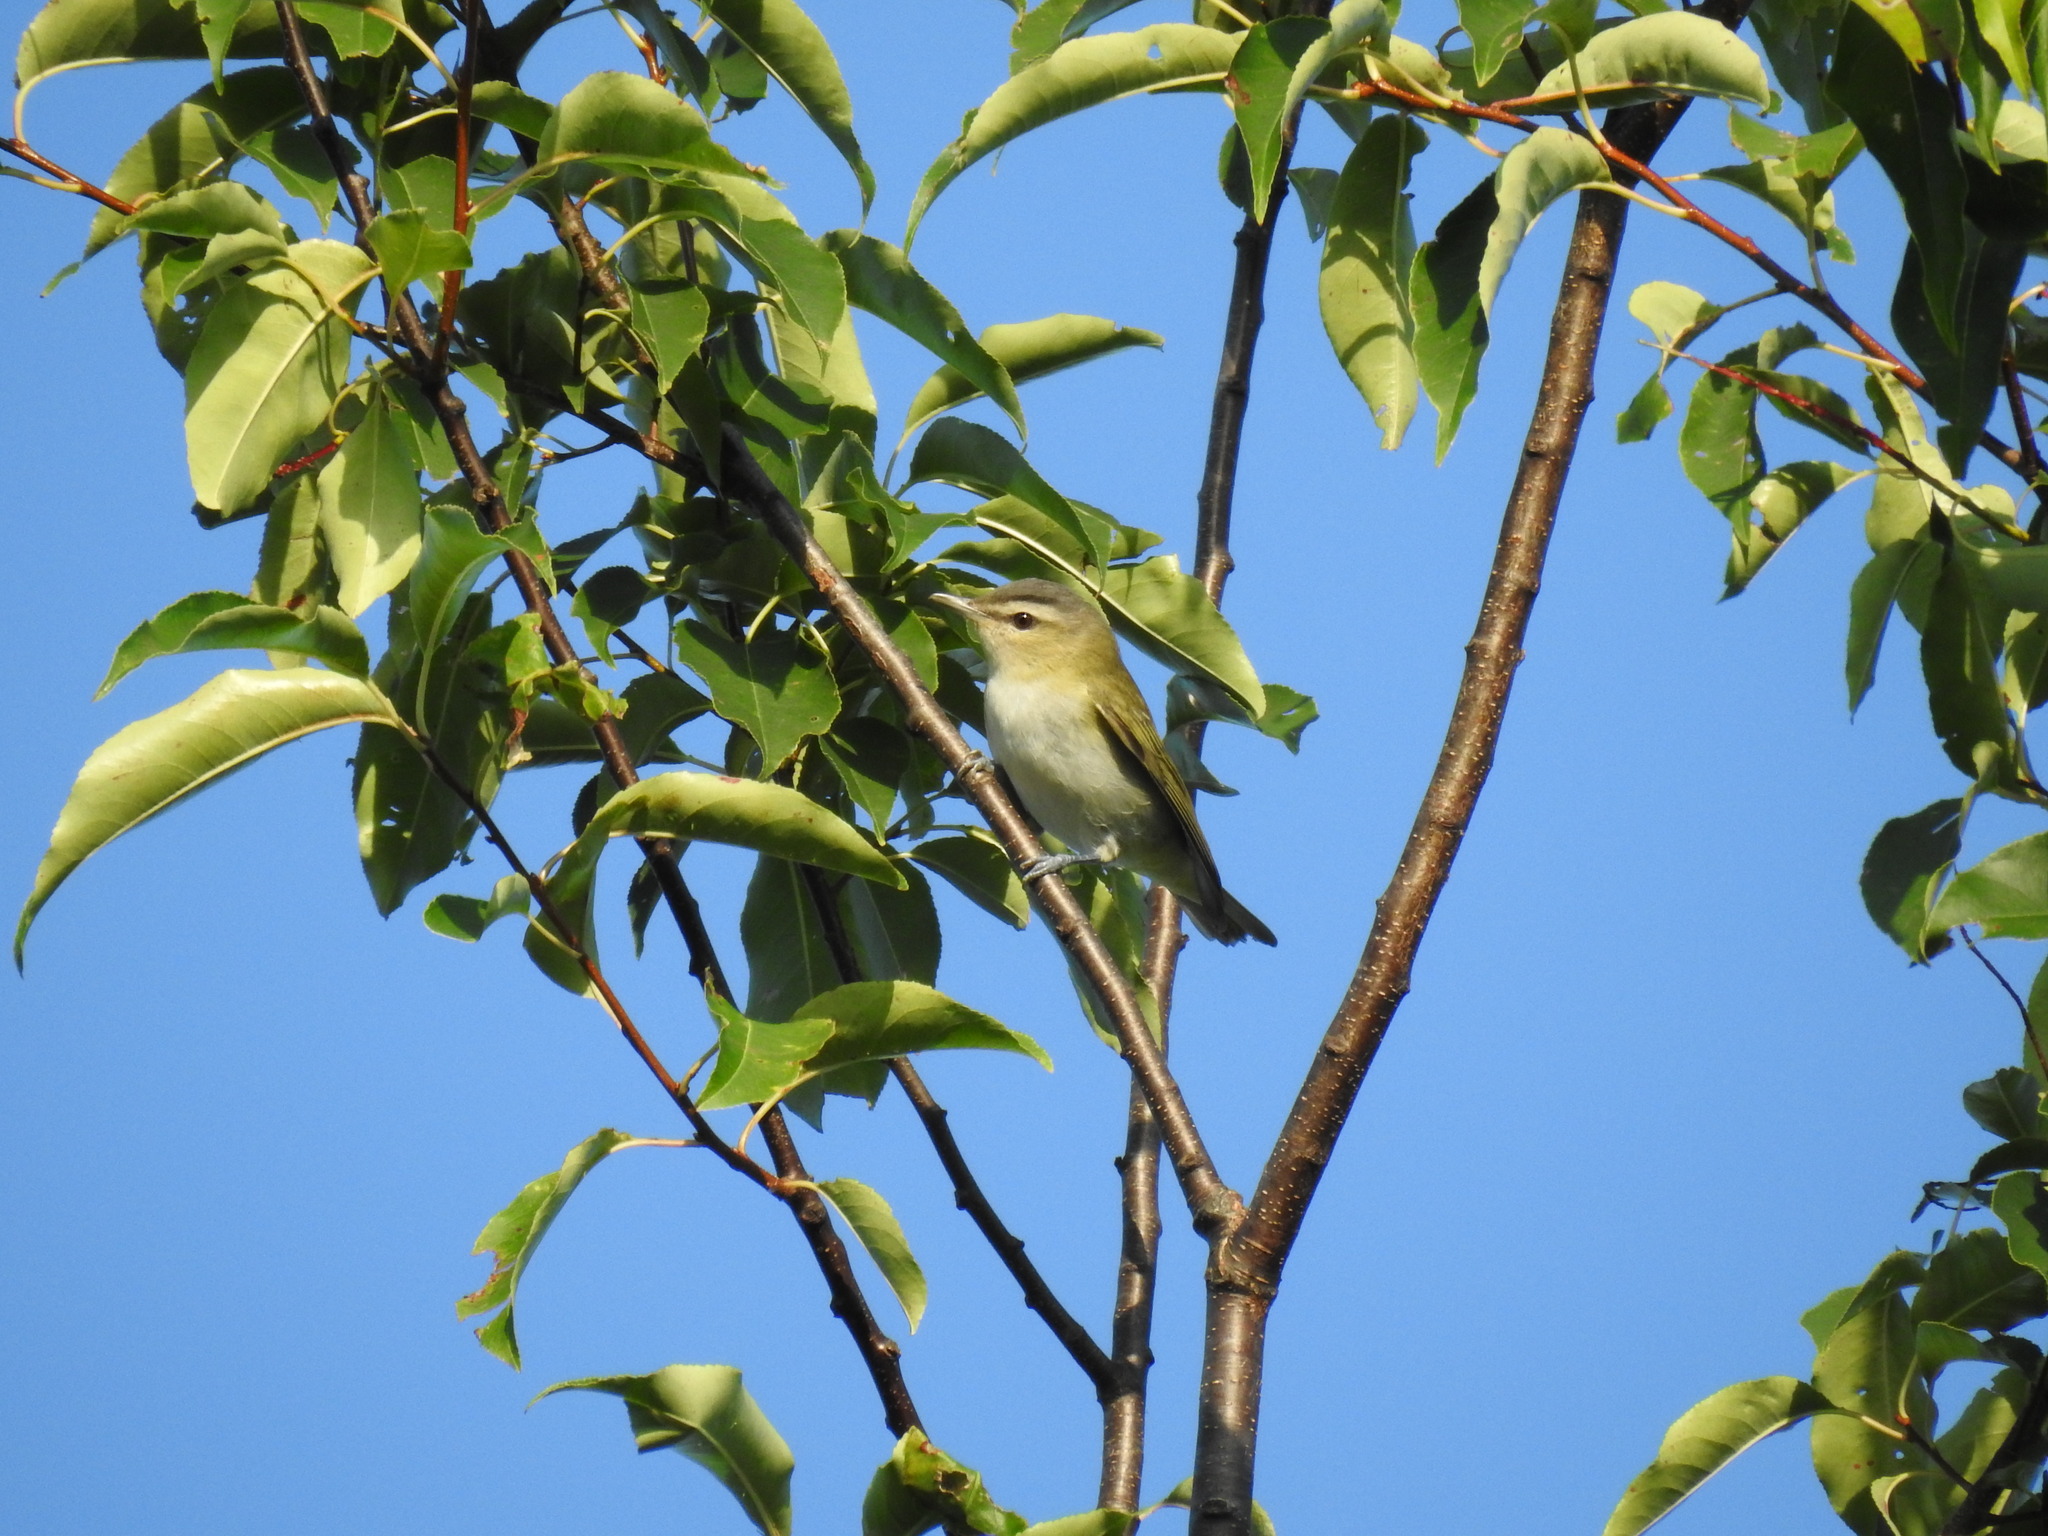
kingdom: Animalia
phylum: Chordata
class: Aves
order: Passeriformes
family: Vireonidae
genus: Vireo
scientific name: Vireo olivaceus
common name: Red-eyed vireo
